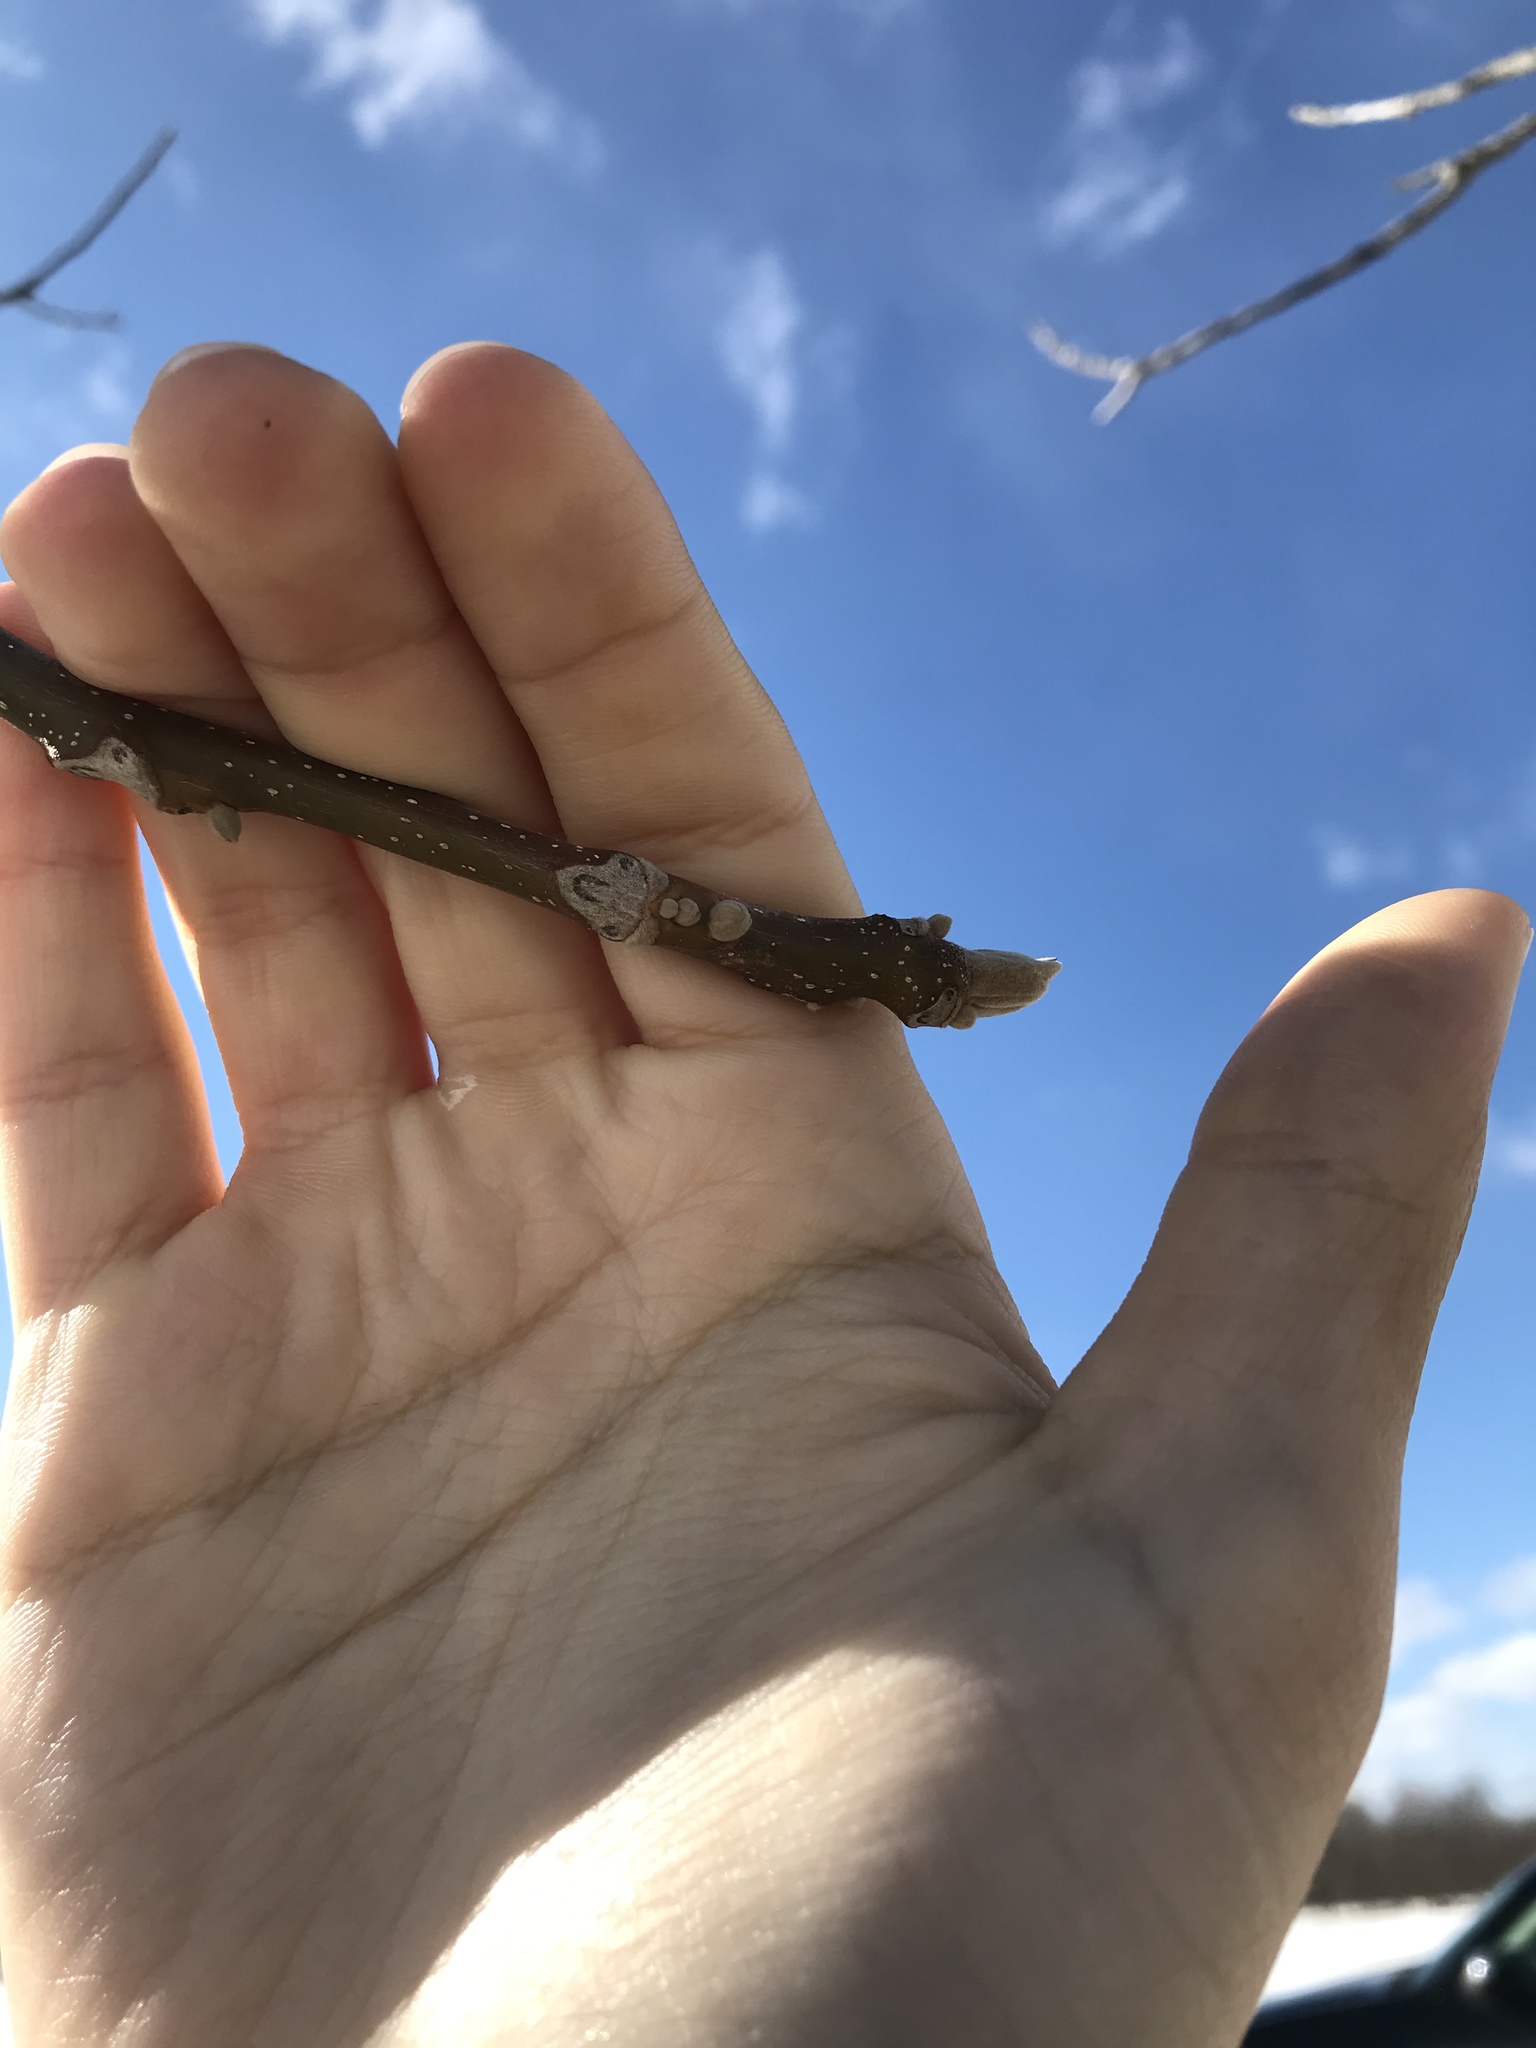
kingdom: Plantae
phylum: Tracheophyta
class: Magnoliopsida
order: Fagales
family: Juglandaceae
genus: Juglans
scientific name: Juglans cinerea
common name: Butternut
